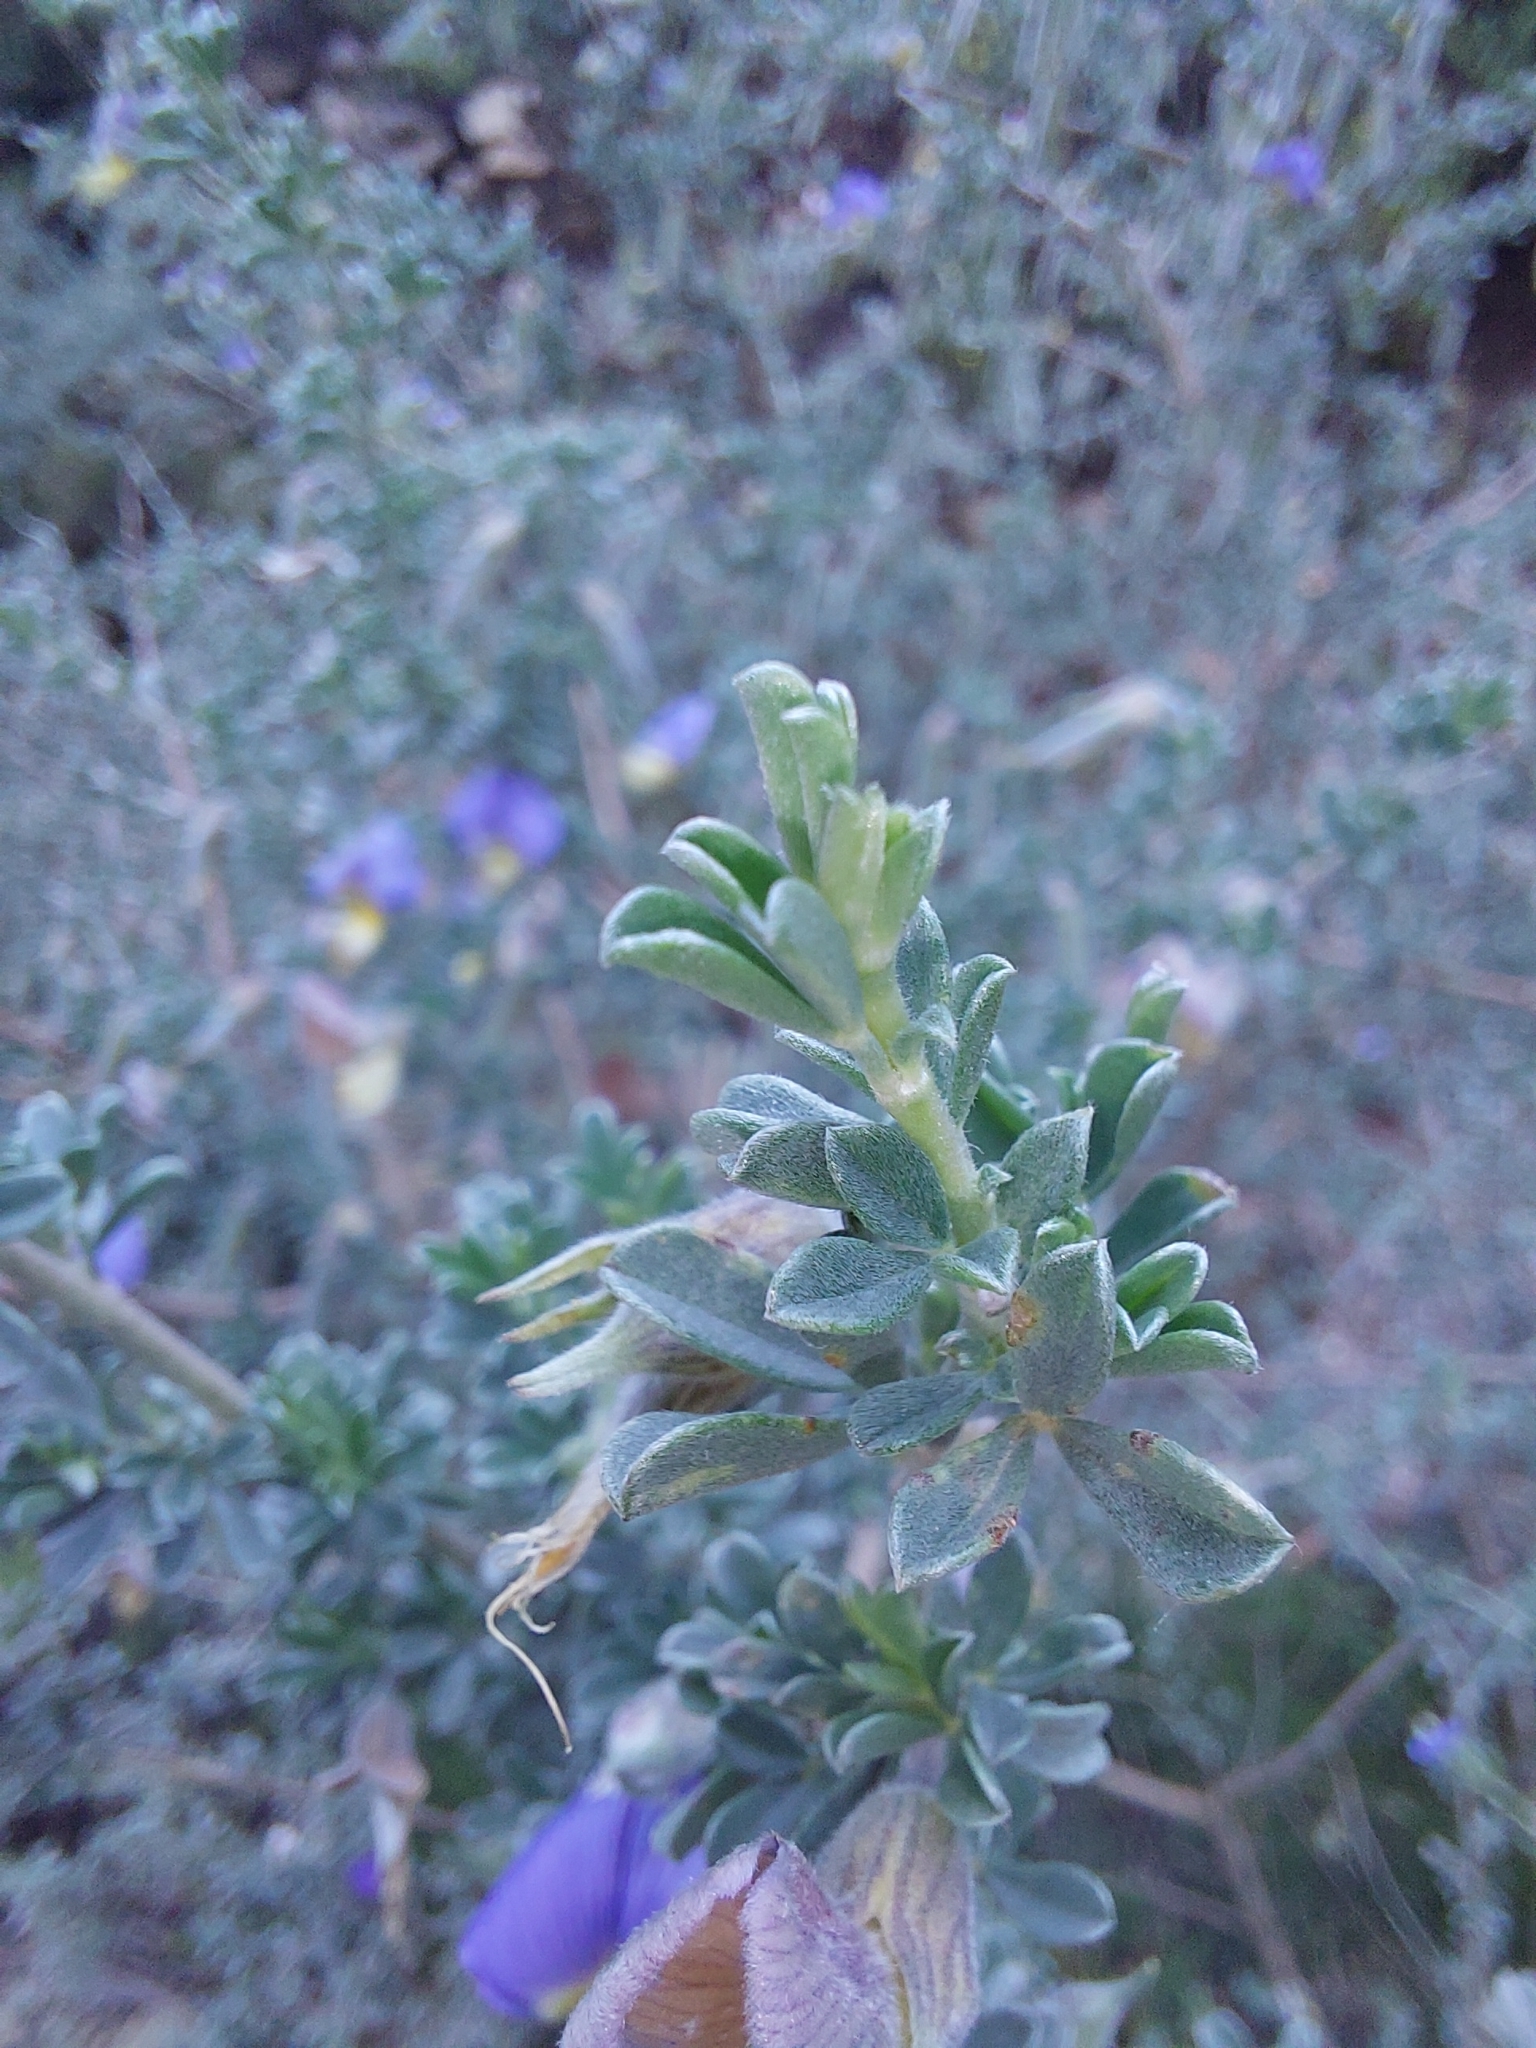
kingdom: Plantae
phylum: Tracheophyta
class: Magnoliopsida
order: Fabales
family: Fabaceae
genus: Lotononis
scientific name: Lotononis sericophylla
